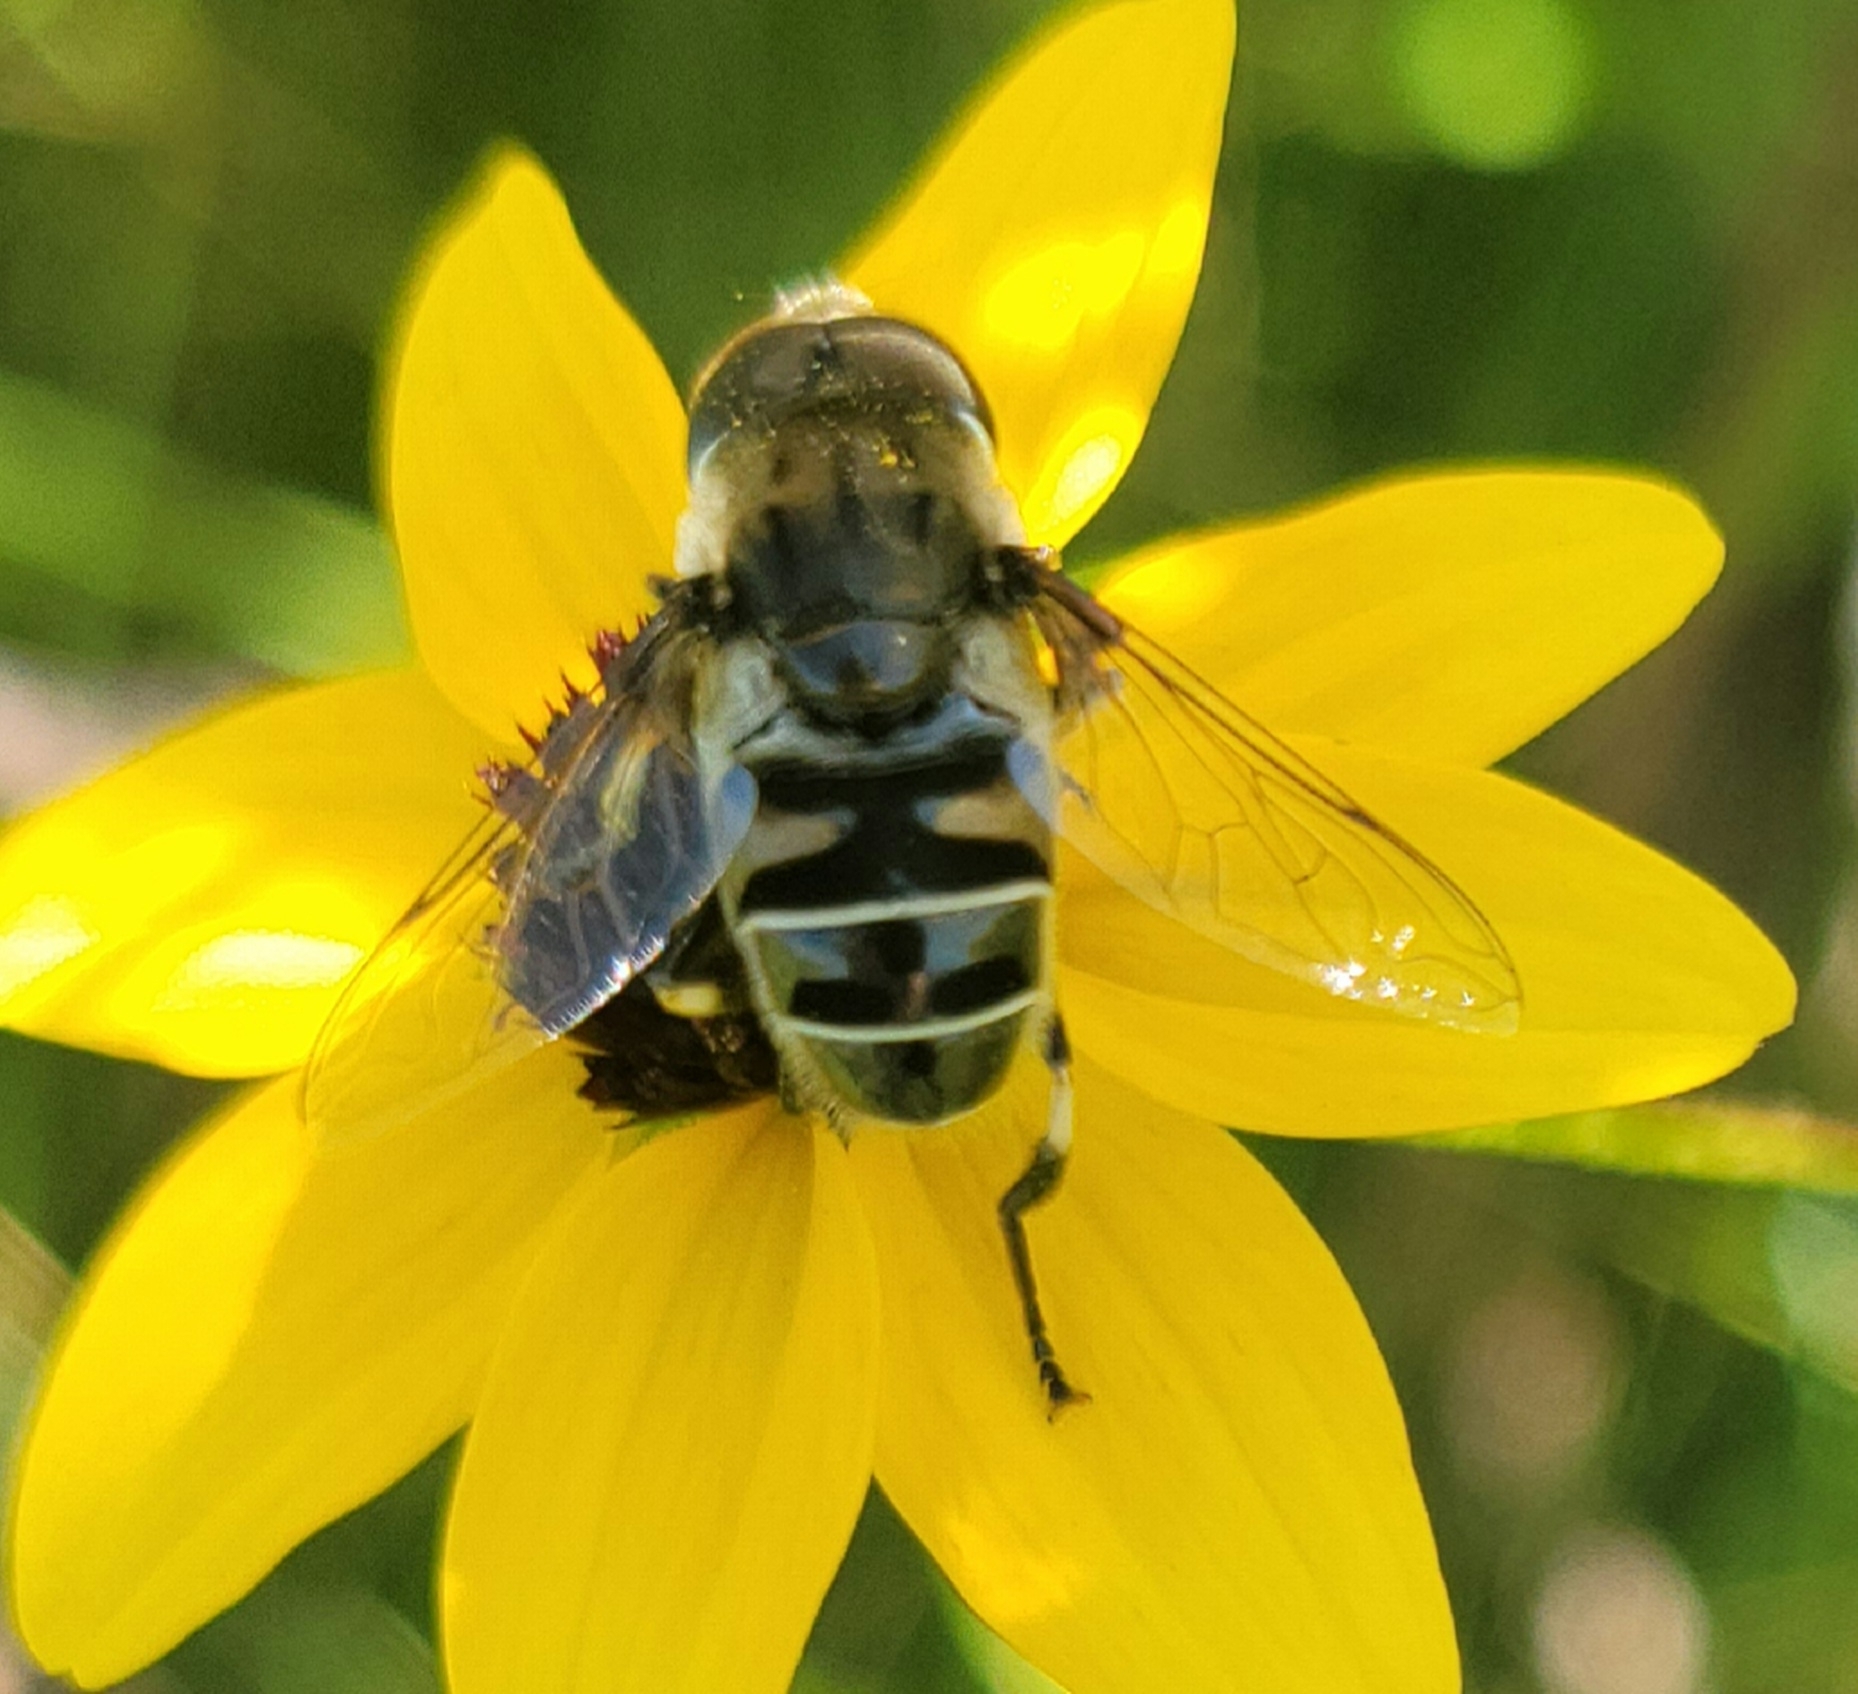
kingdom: Animalia
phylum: Arthropoda
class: Insecta
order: Diptera
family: Syrphidae
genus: Eristalis
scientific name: Eristalis dimidiata
